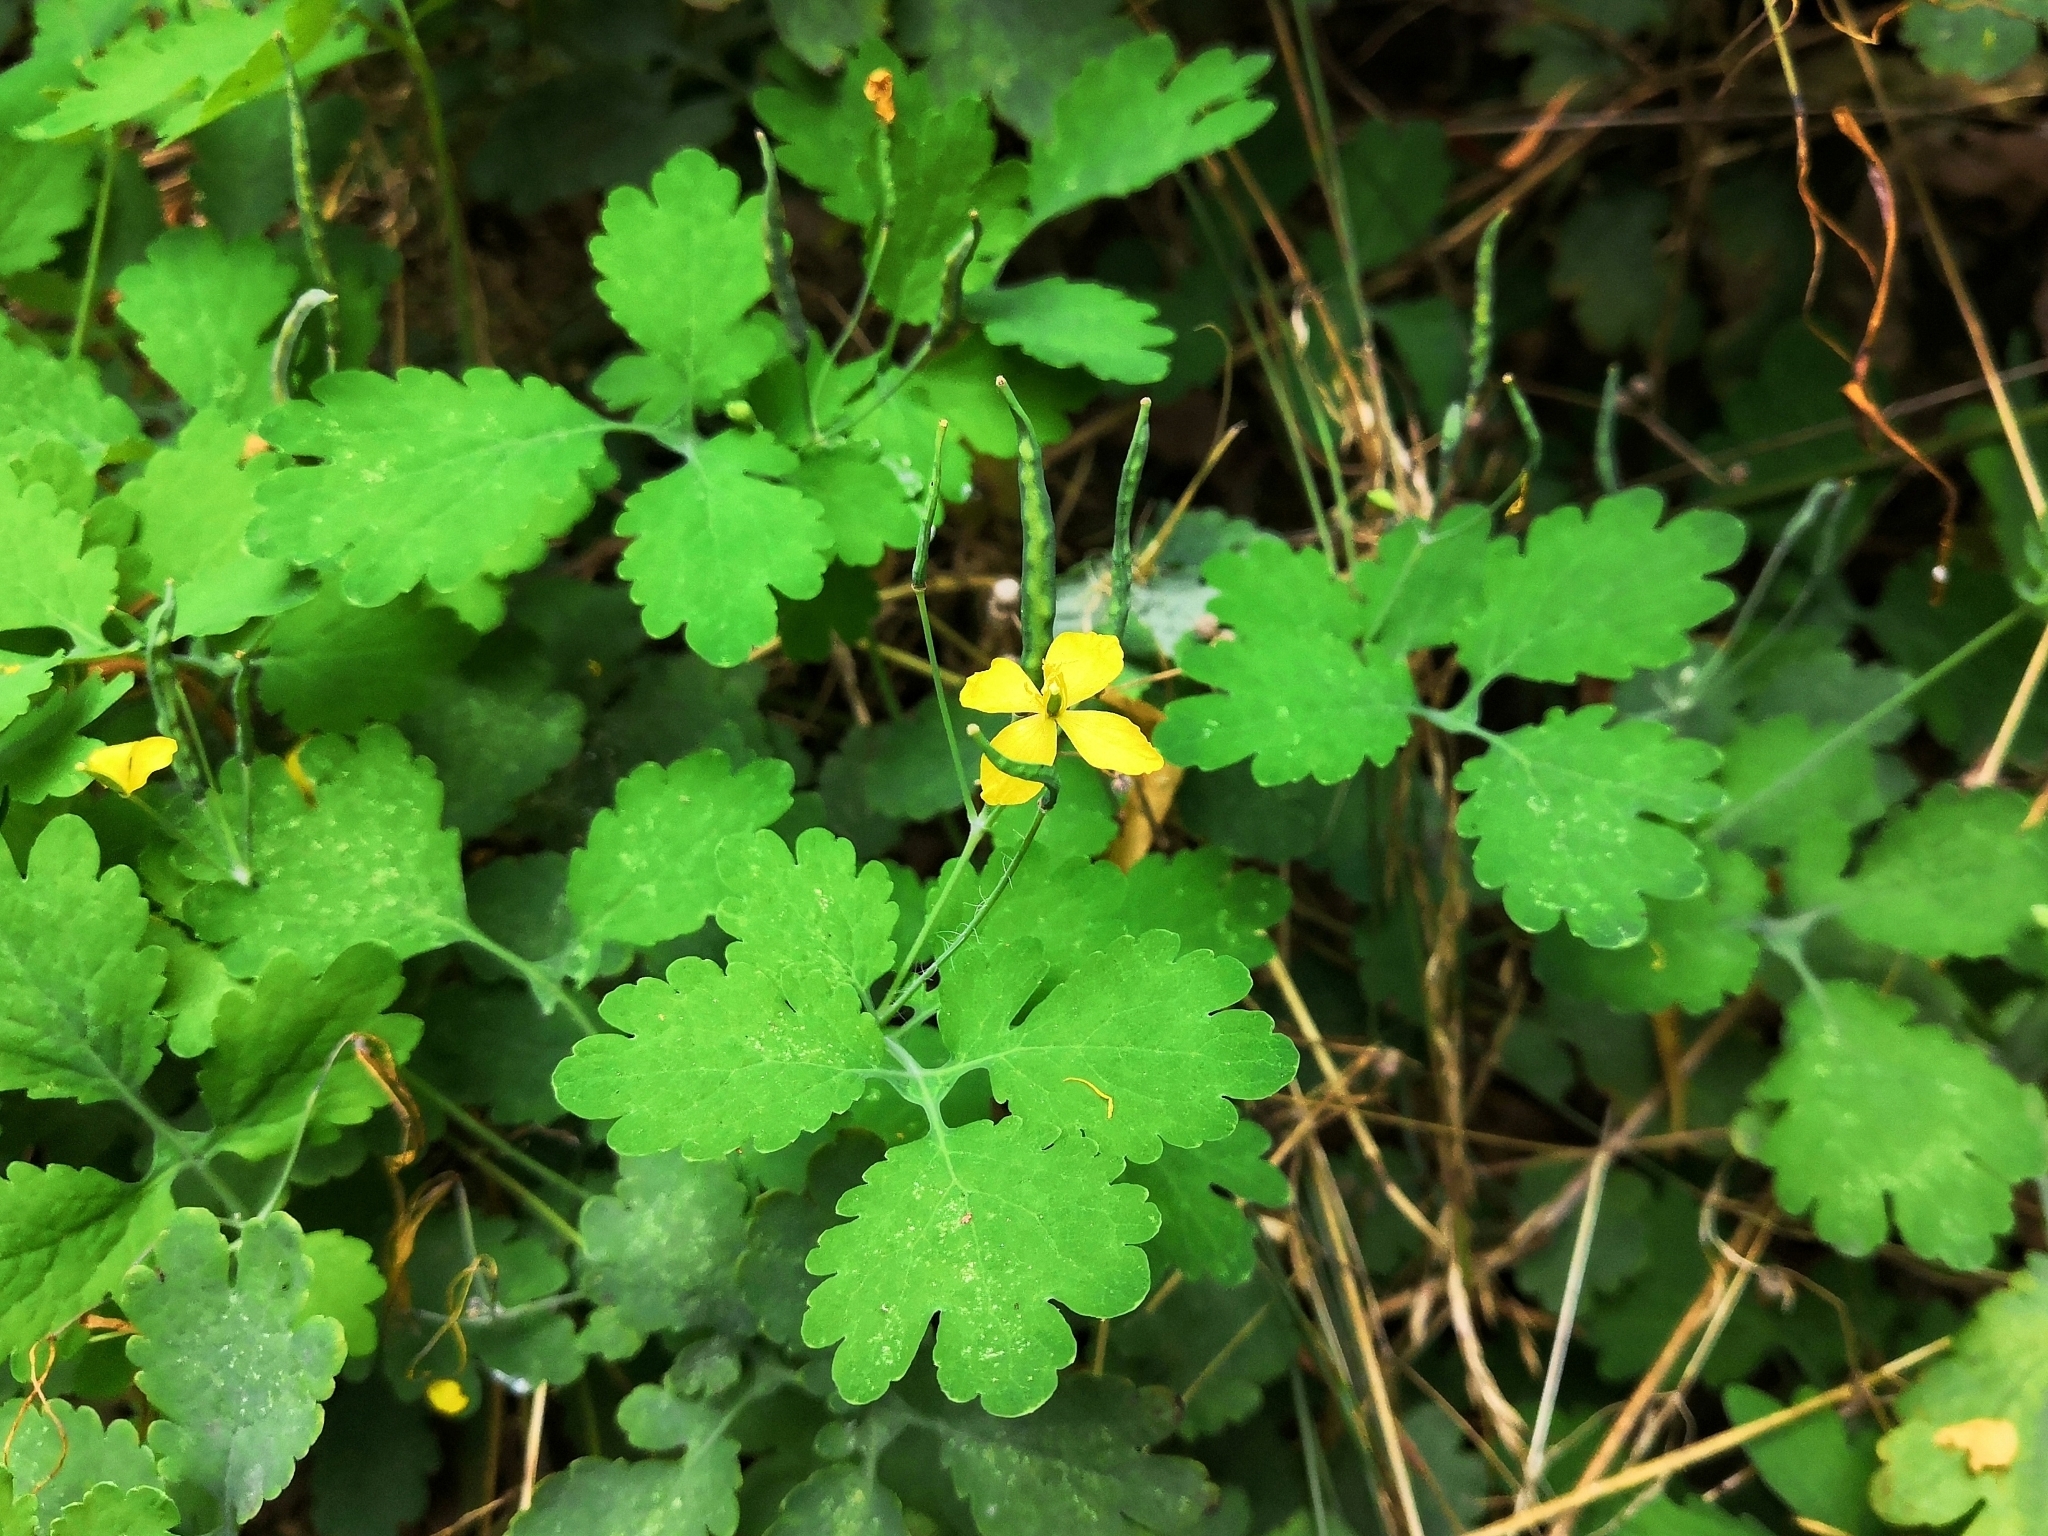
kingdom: Plantae
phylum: Tracheophyta
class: Magnoliopsida
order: Ranunculales
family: Papaveraceae
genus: Chelidonium
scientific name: Chelidonium majus
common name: Greater celandine
